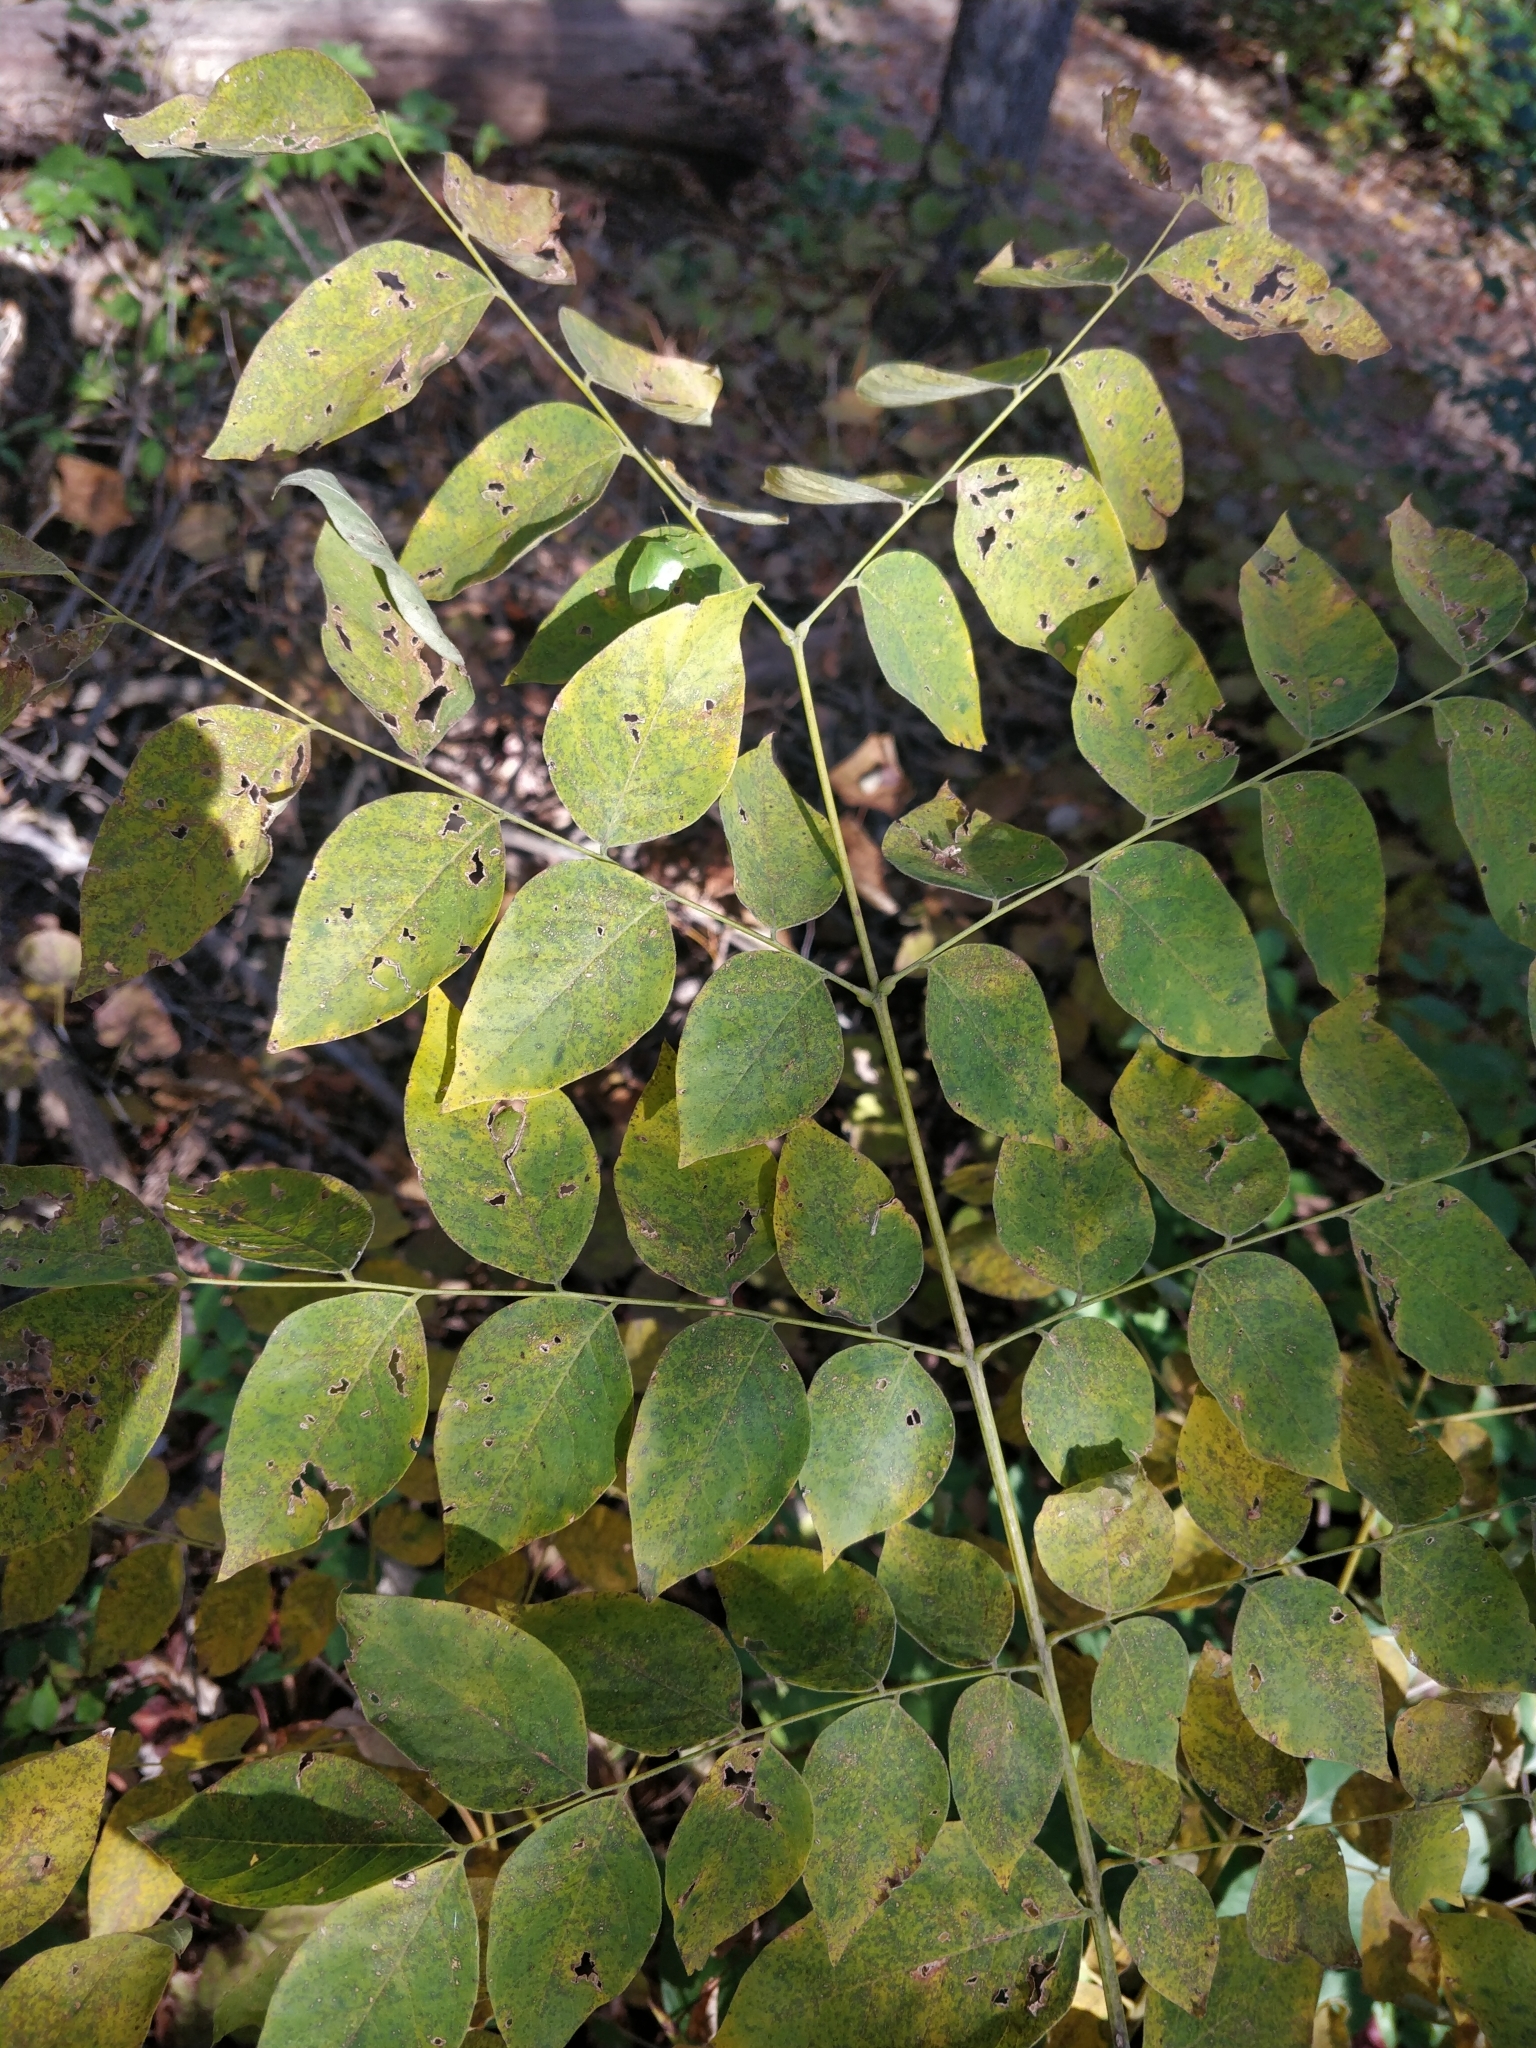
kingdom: Plantae
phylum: Tracheophyta
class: Magnoliopsida
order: Fabales
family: Fabaceae
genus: Gymnocladus
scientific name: Gymnocladus dioicus
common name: Kentucky coffee-tree
